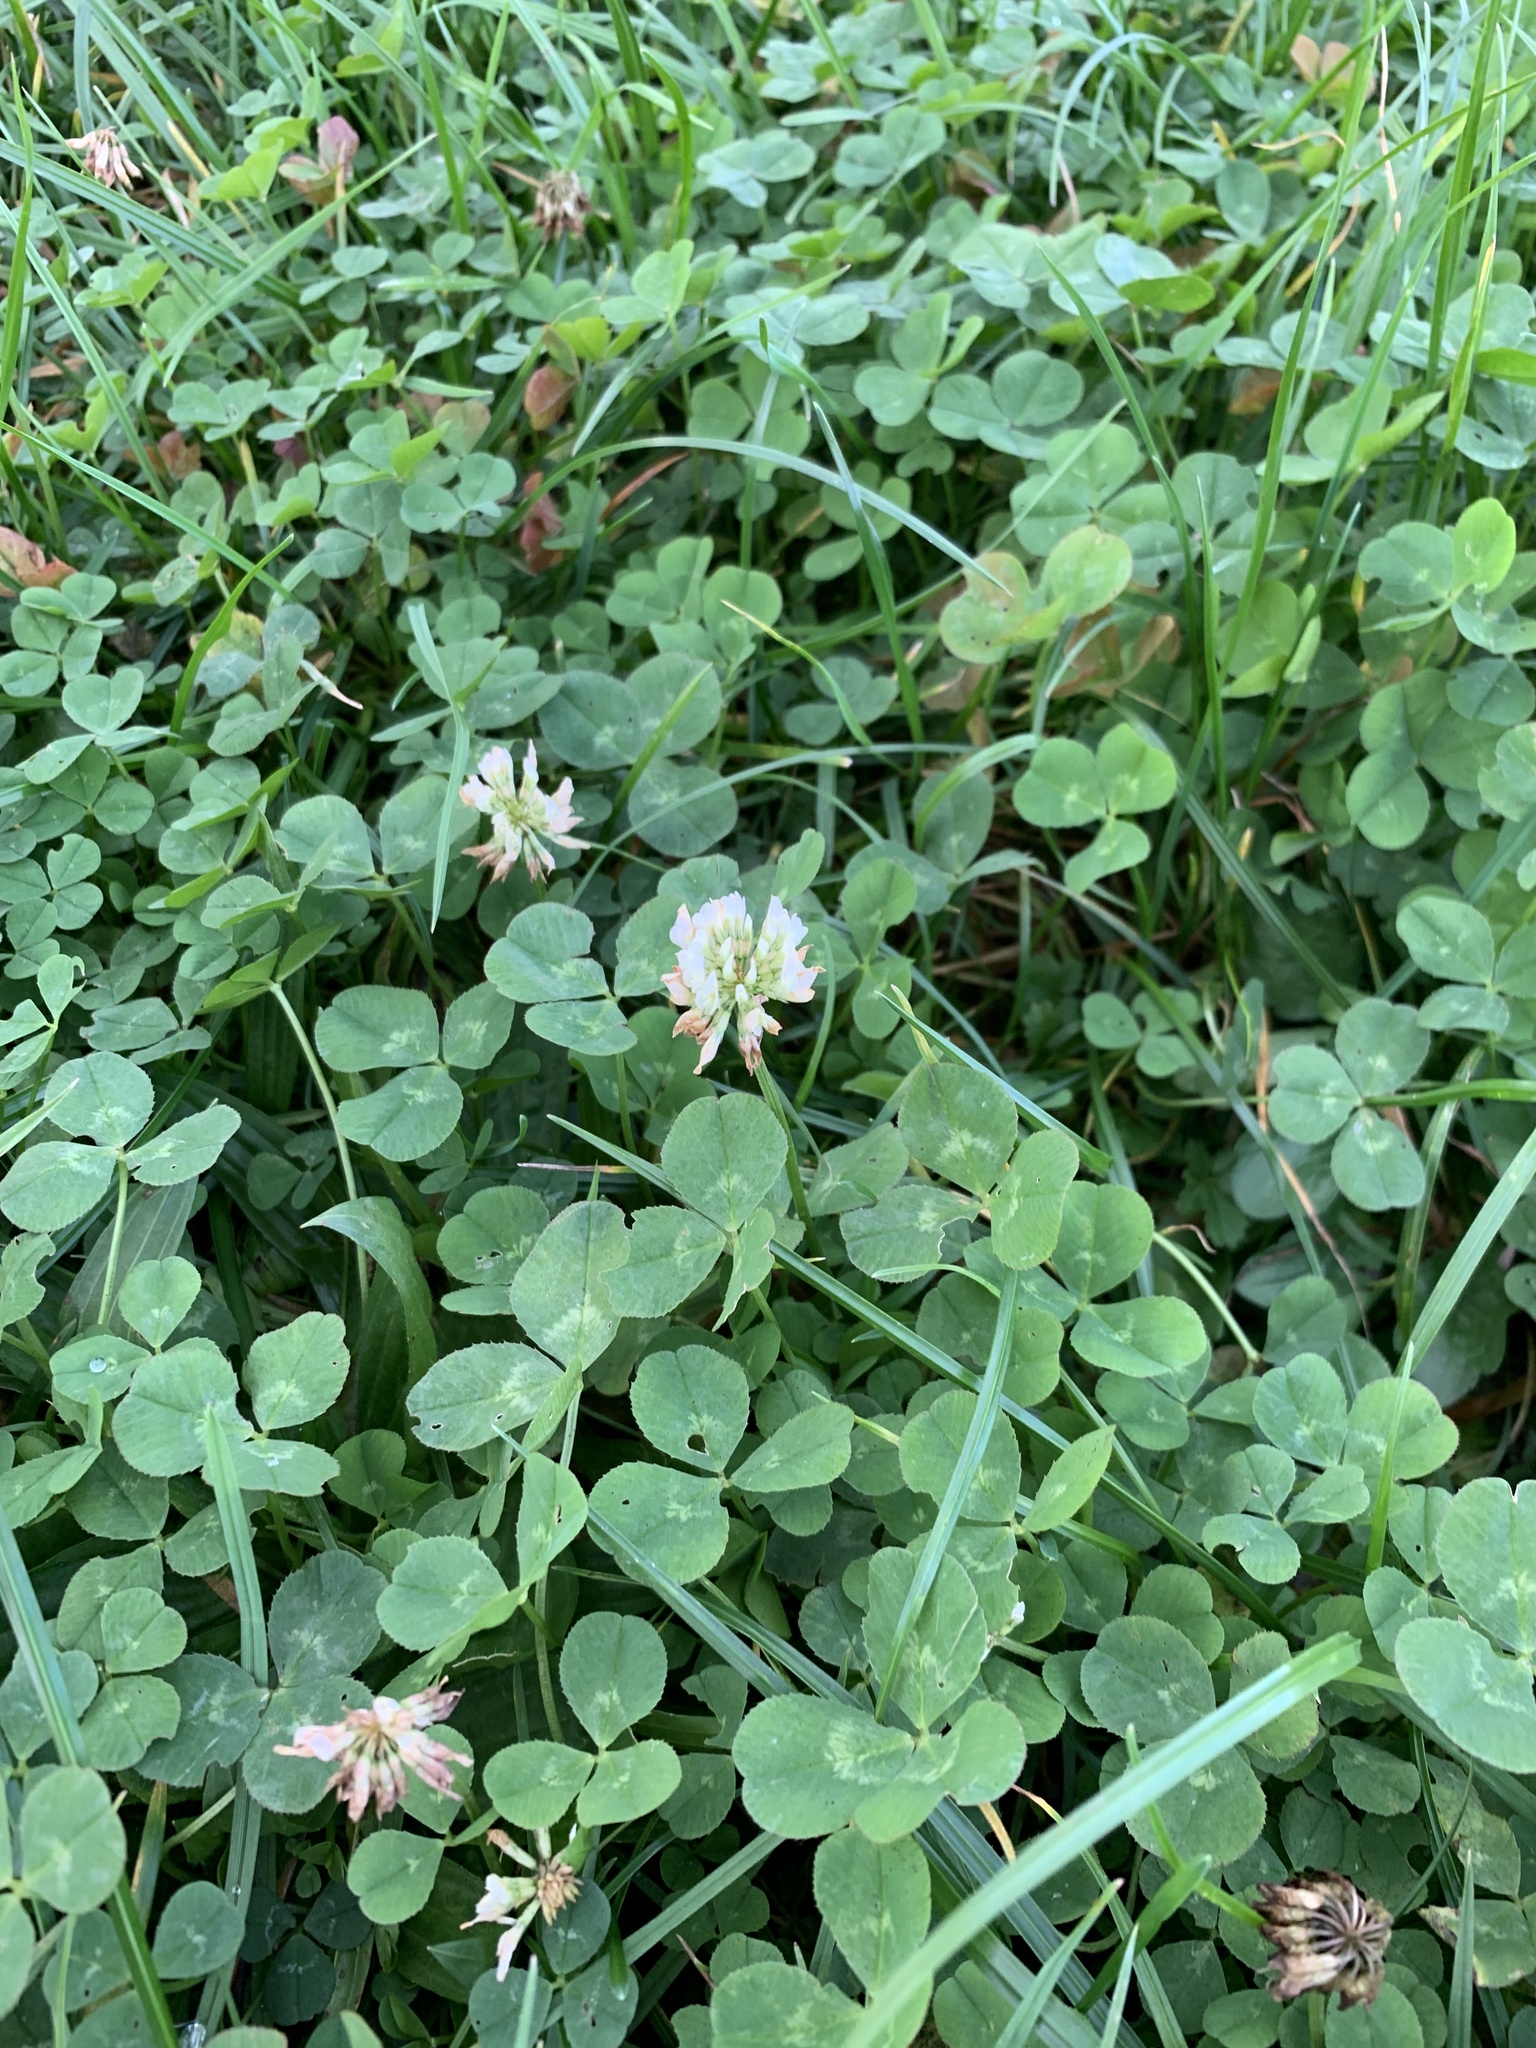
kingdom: Plantae
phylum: Tracheophyta
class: Magnoliopsida
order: Fabales
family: Fabaceae
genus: Trifolium
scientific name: Trifolium repens
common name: White clover
